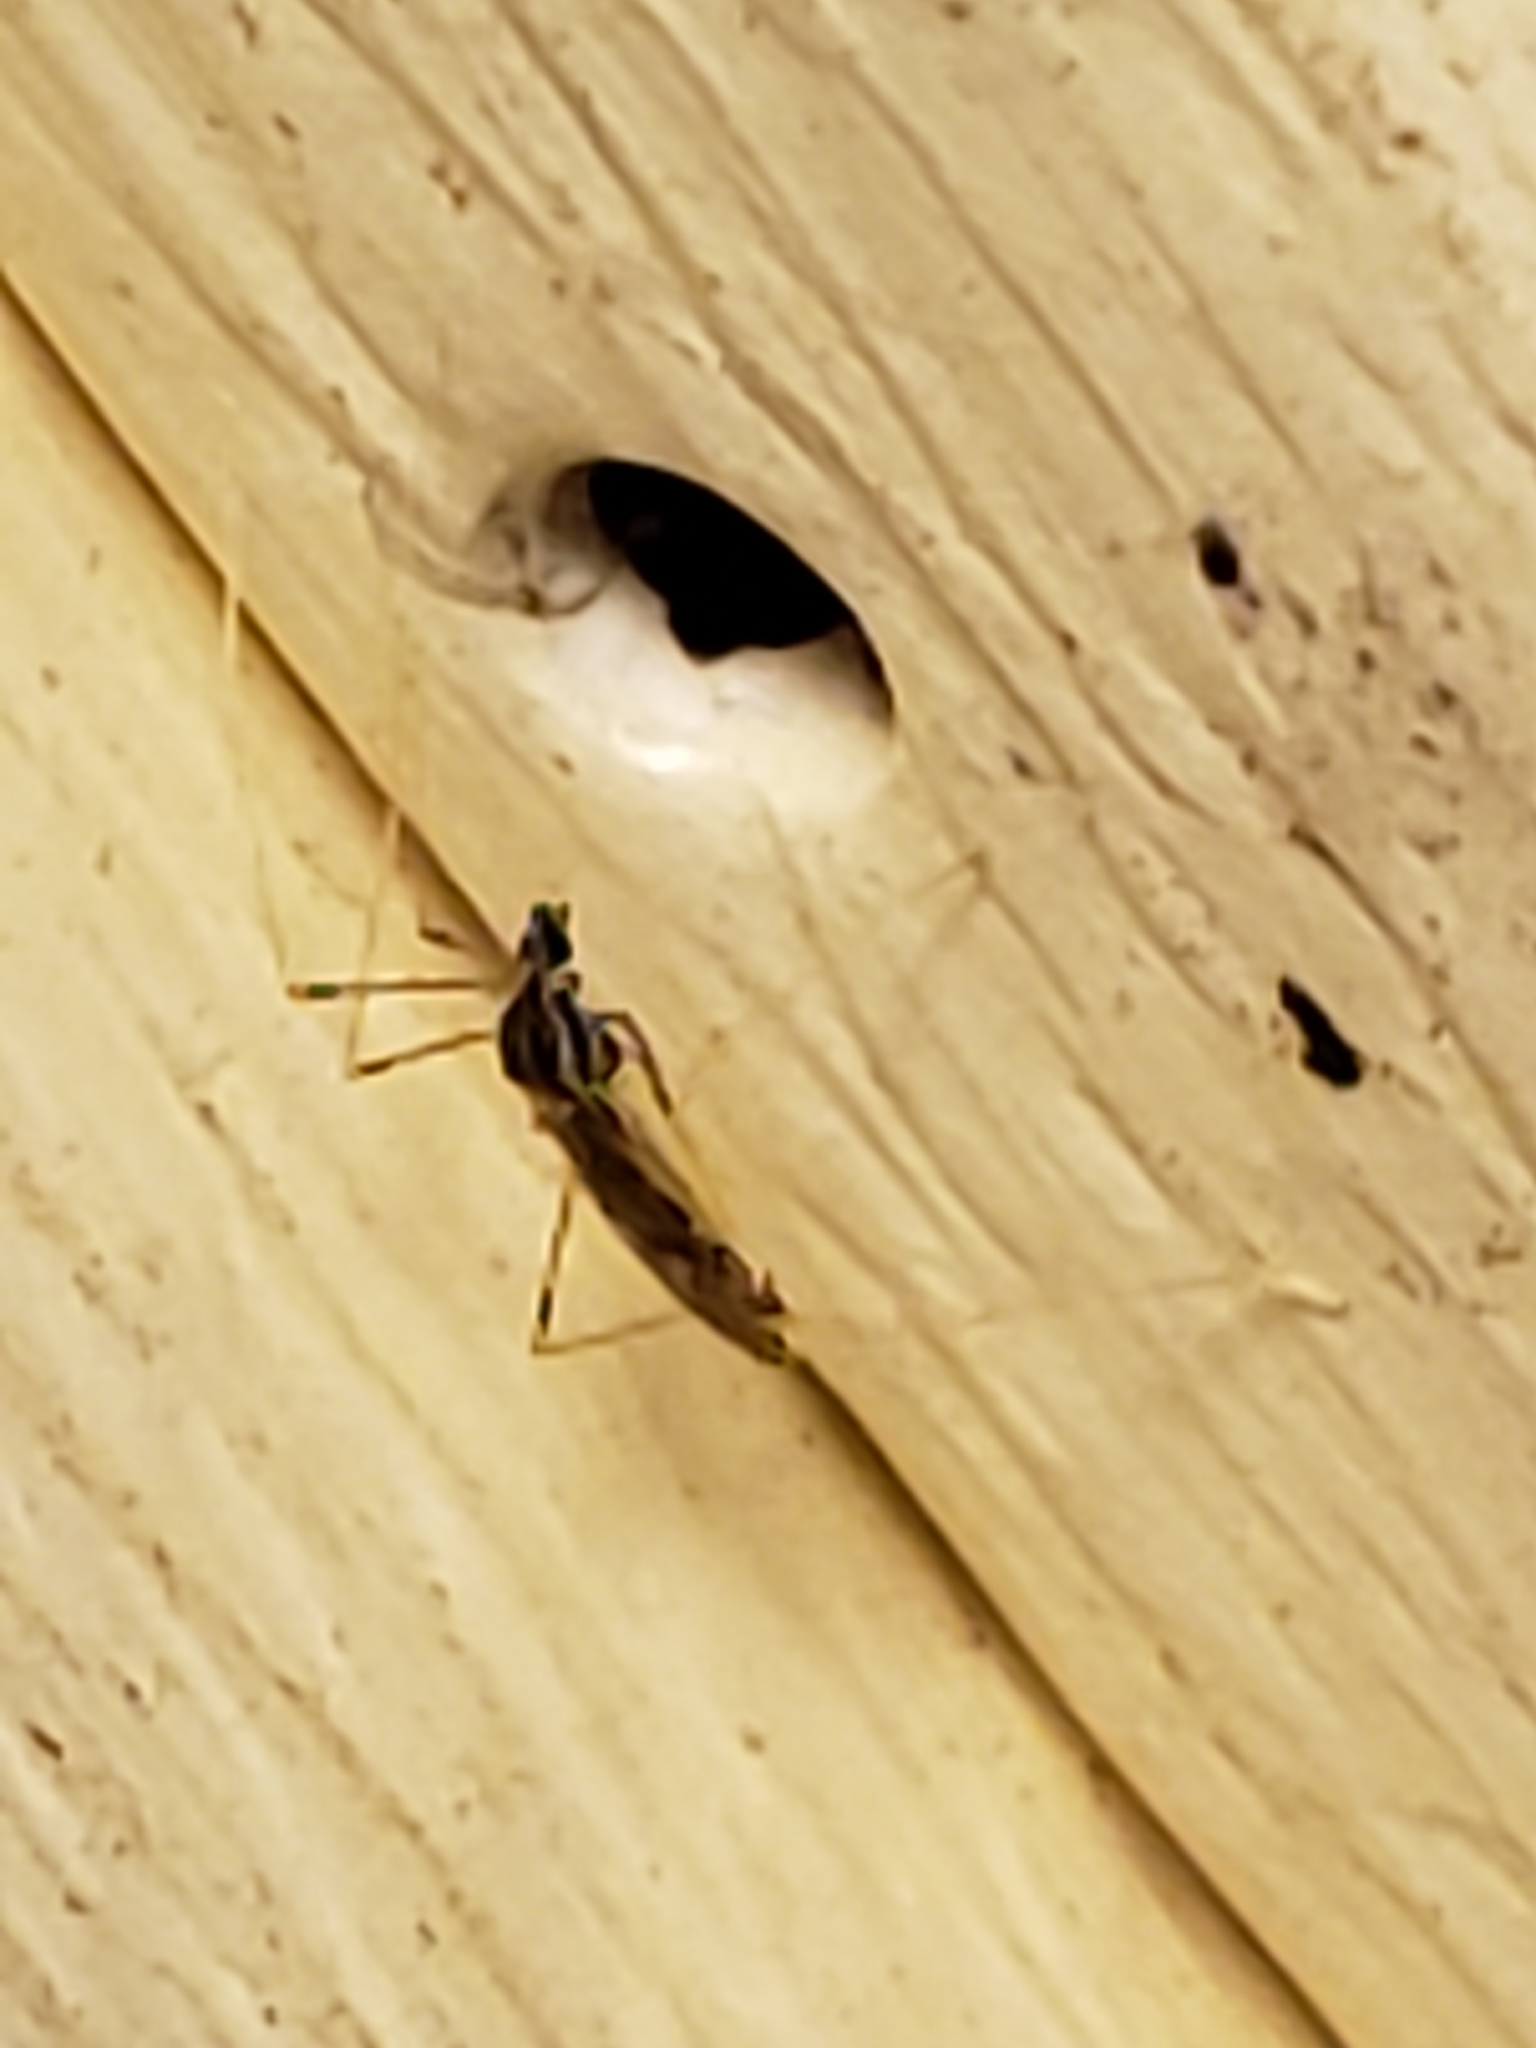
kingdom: Animalia
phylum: Arthropoda
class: Insecta
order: Diptera
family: Limoniidae
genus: Erioptera
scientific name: Erioptera parva
